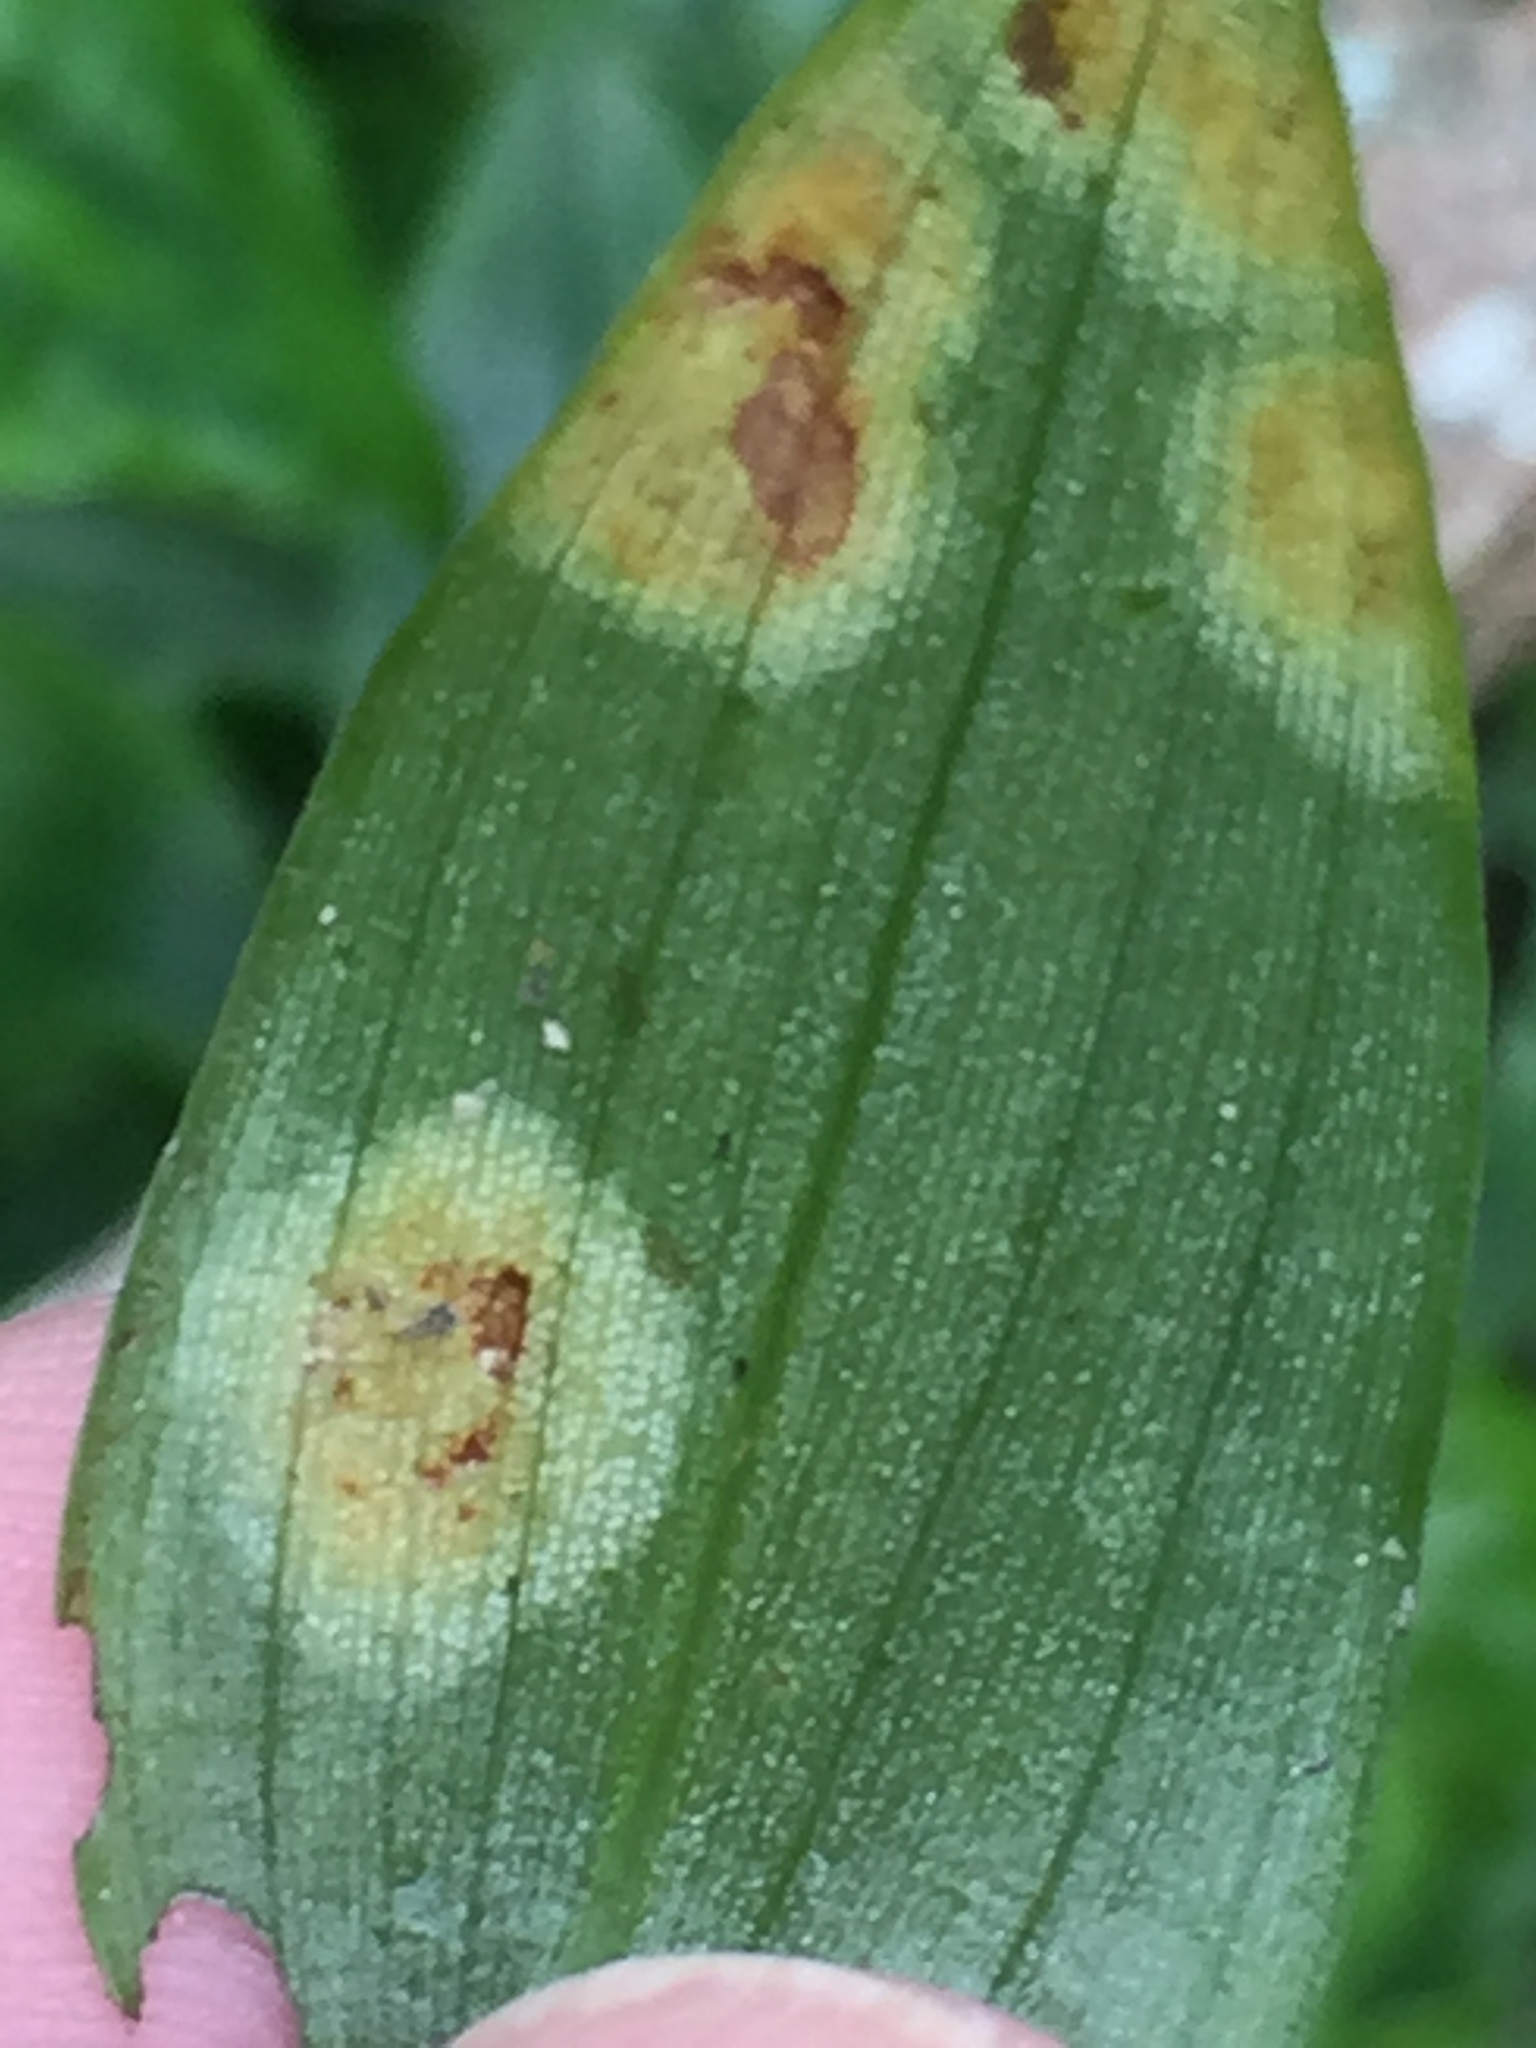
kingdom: Fungi
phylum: Basidiomycota
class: Exobasidiomycetes
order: Exobasidiales
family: Brachybasidiaceae
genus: Kordyana
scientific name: Kordyana brasiliensis
